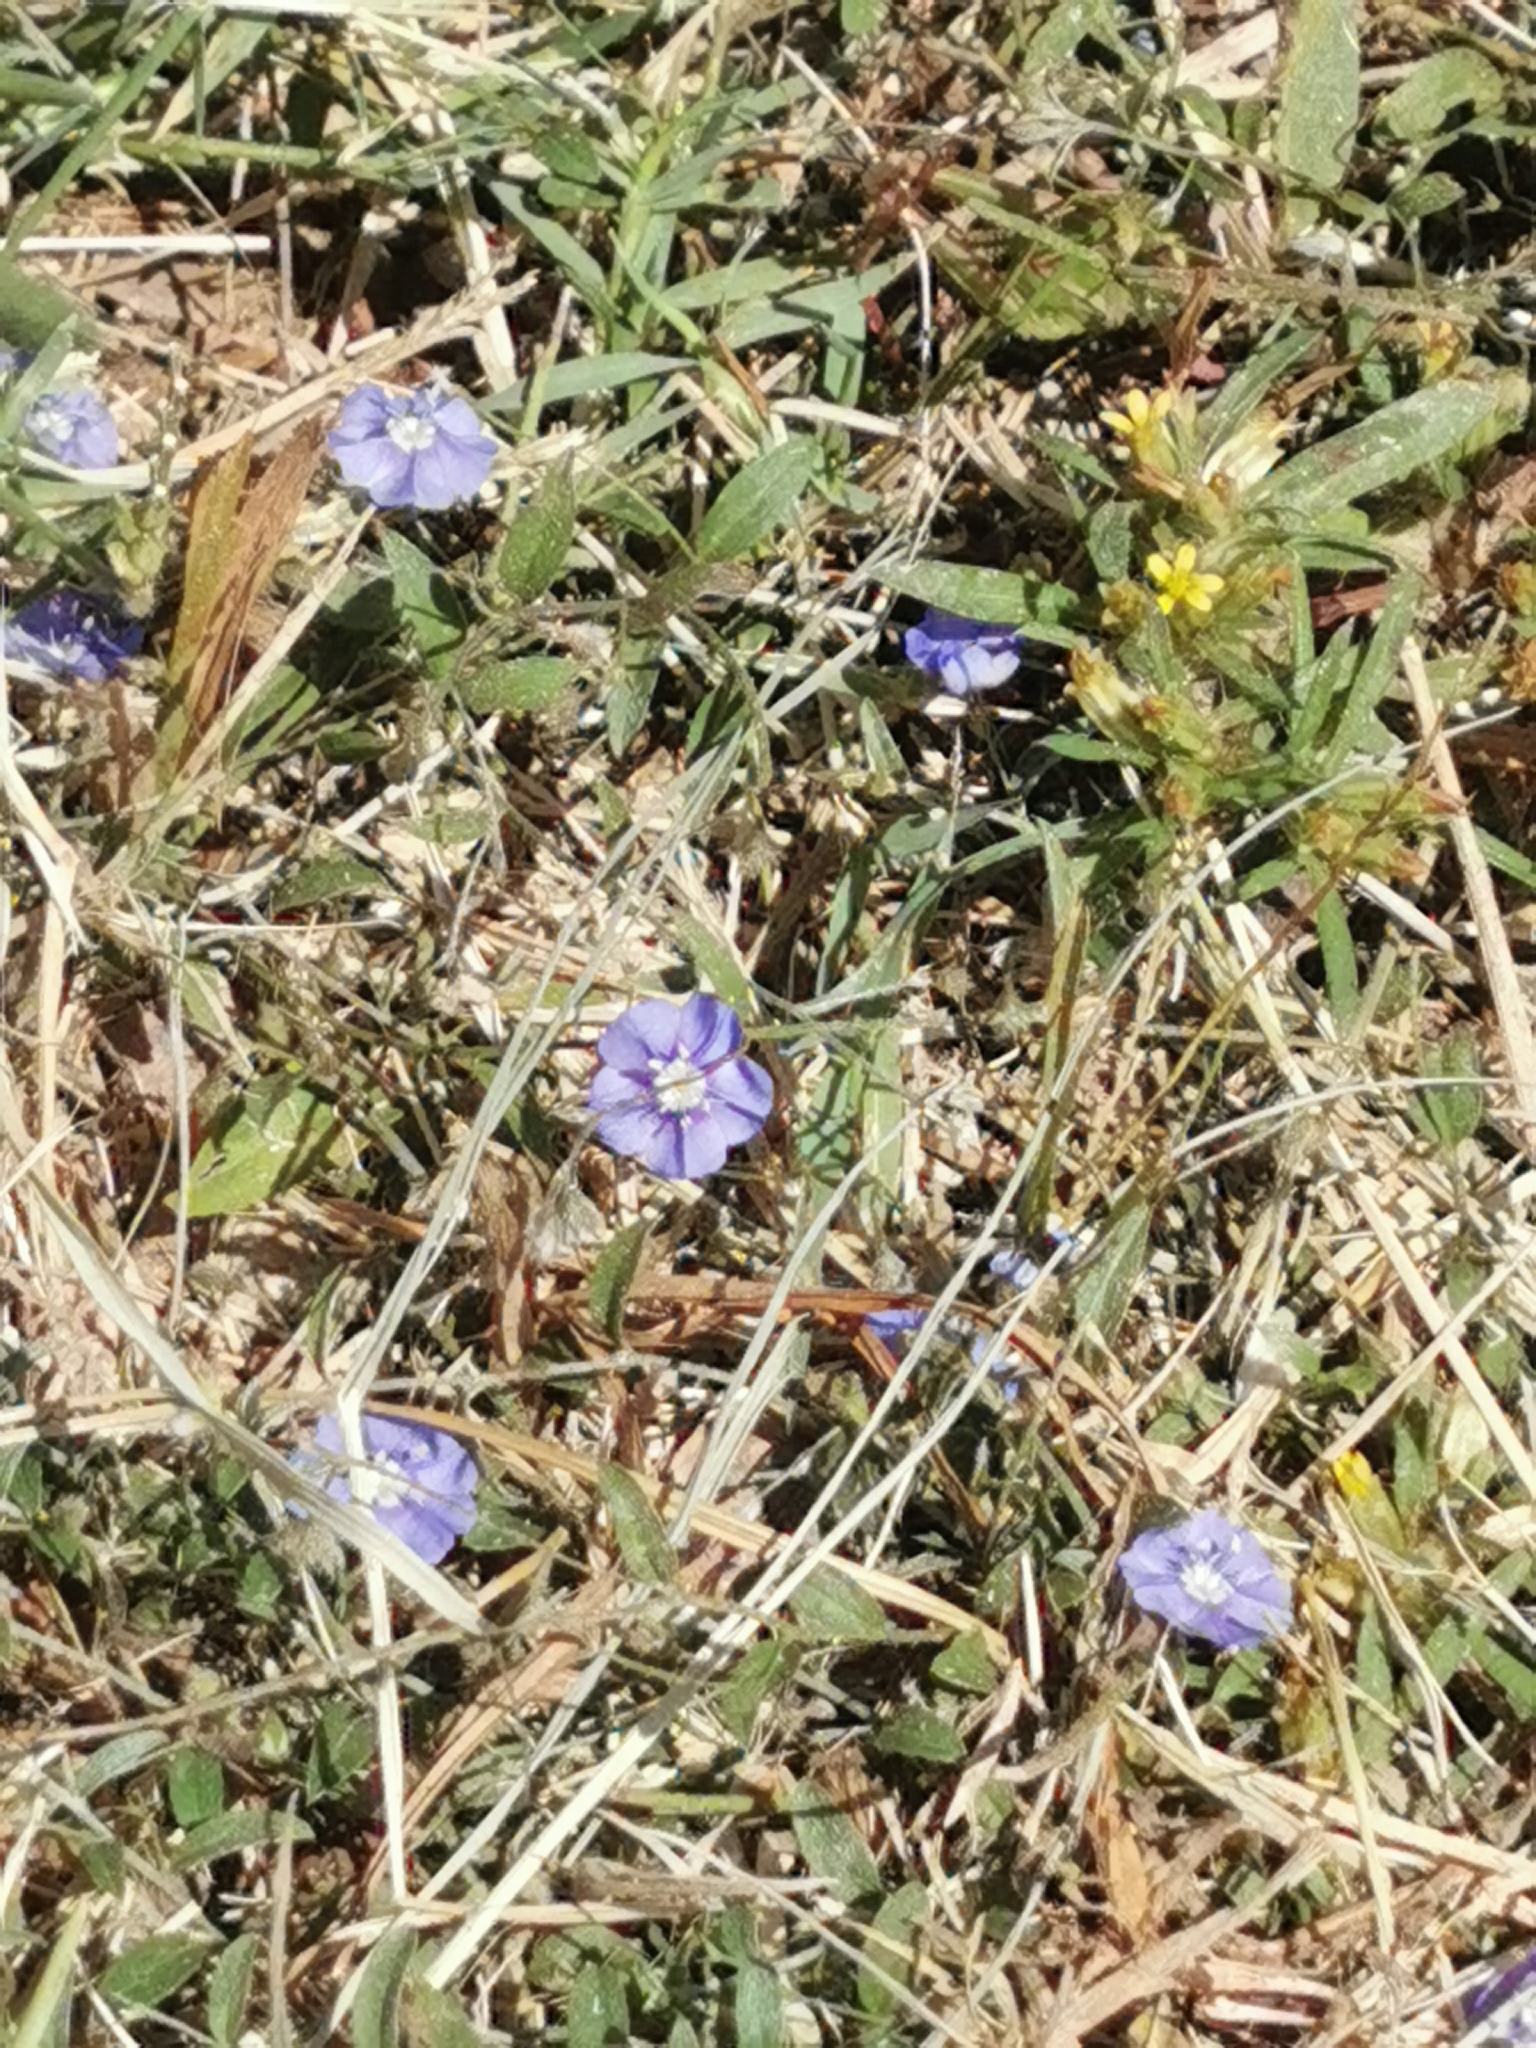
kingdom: Plantae
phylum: Tracheophyta
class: Magnoliopsida
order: Solanales
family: Convolvulaceae
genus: Evolvulus
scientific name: Evolvulus alsinoides
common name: Slender dwarf morning-glory
